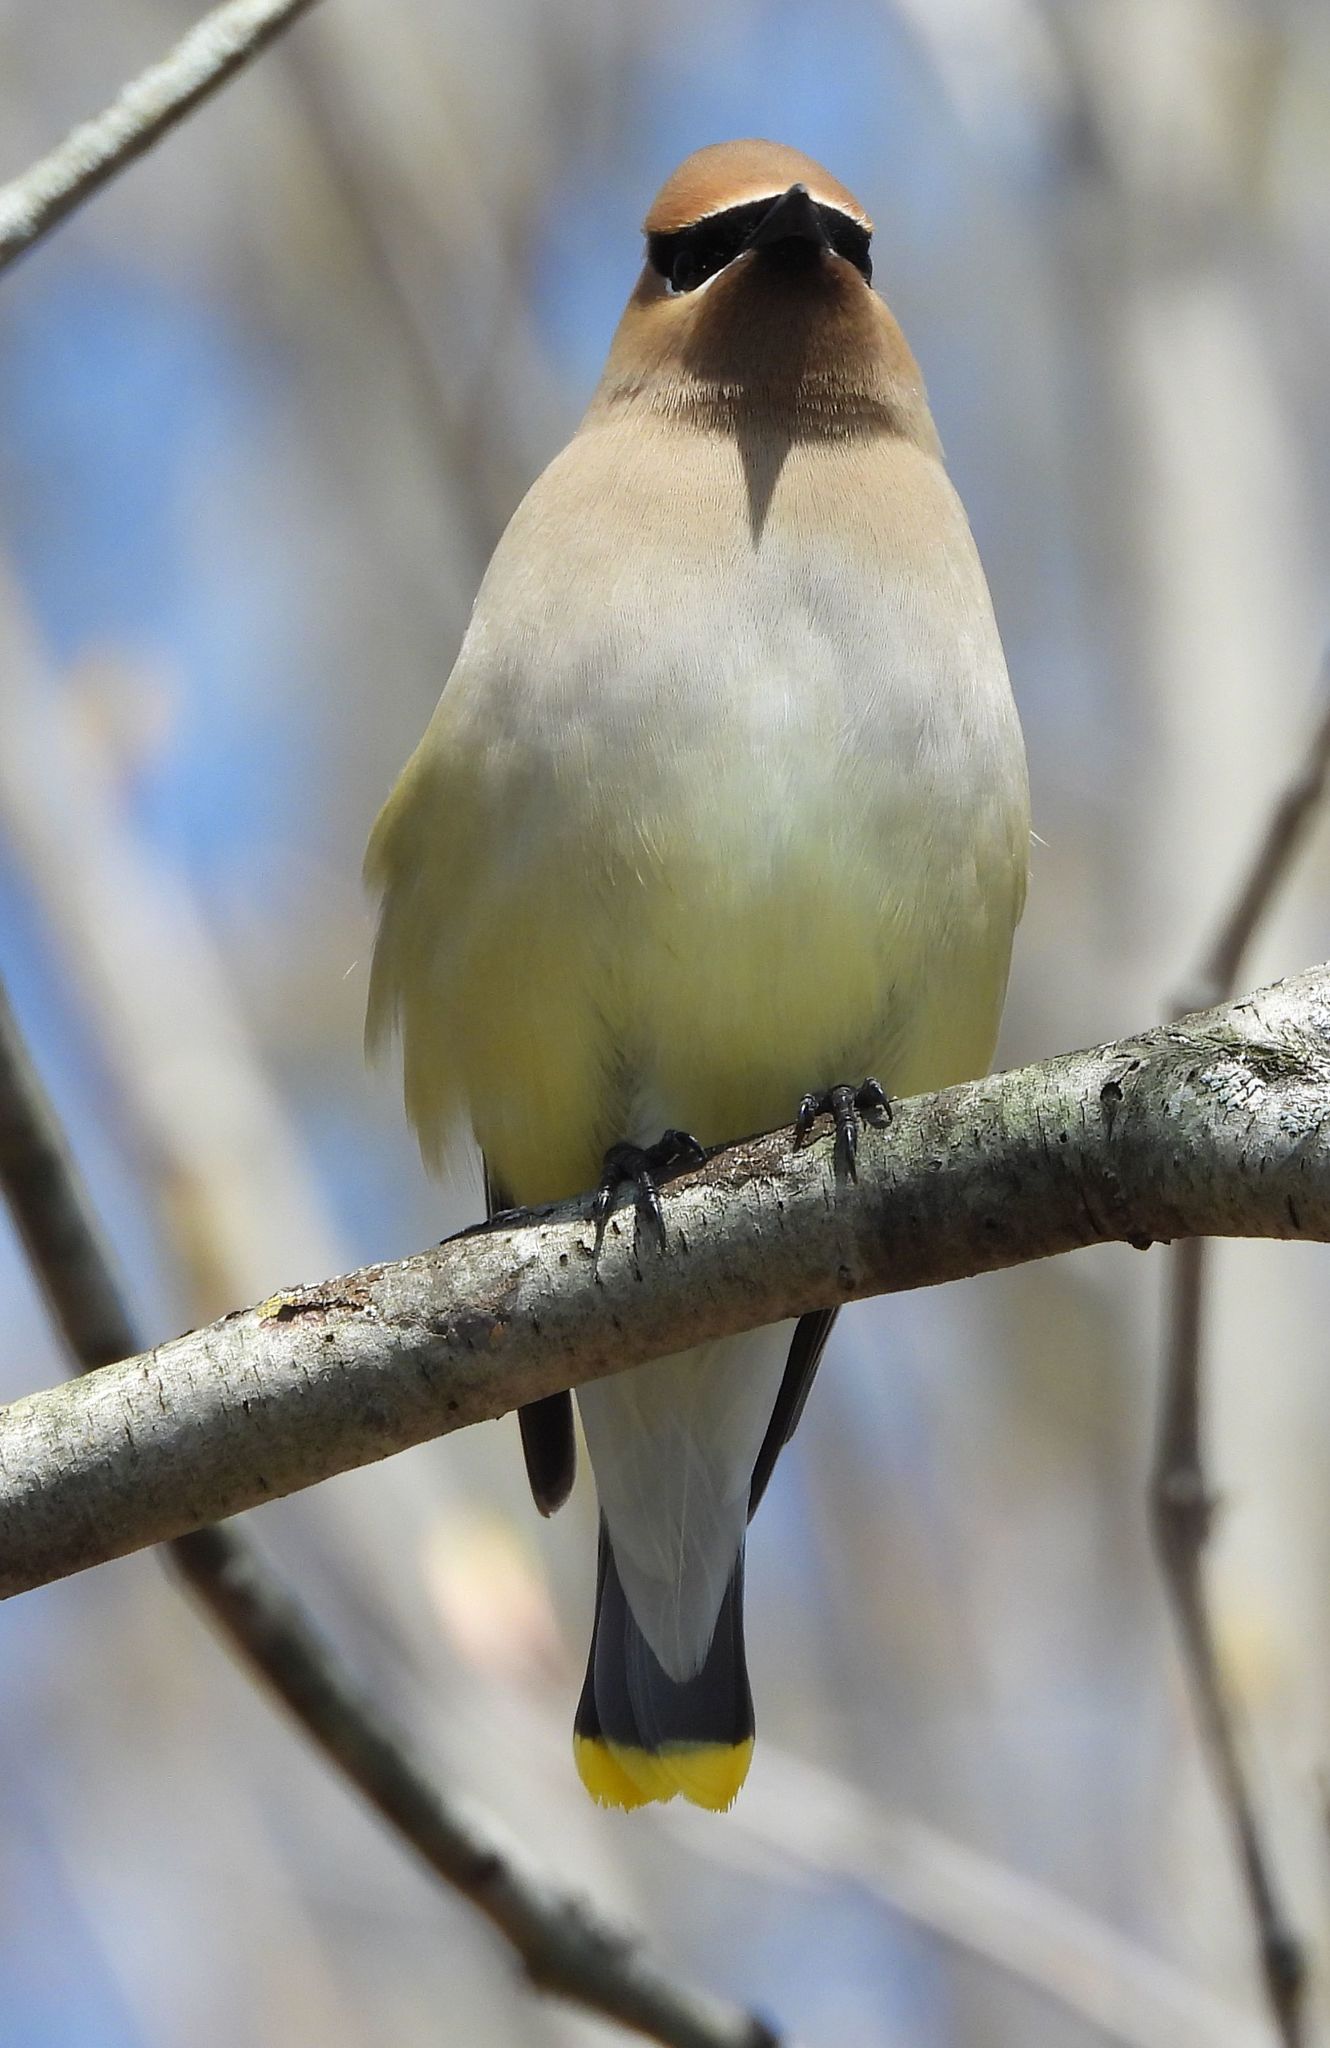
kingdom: Animalia
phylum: Chordata
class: Aves
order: Passeriformes
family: Bombycillidae
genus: Bombycilla
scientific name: Bombycilla cedrorum
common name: Cedar waxwing
